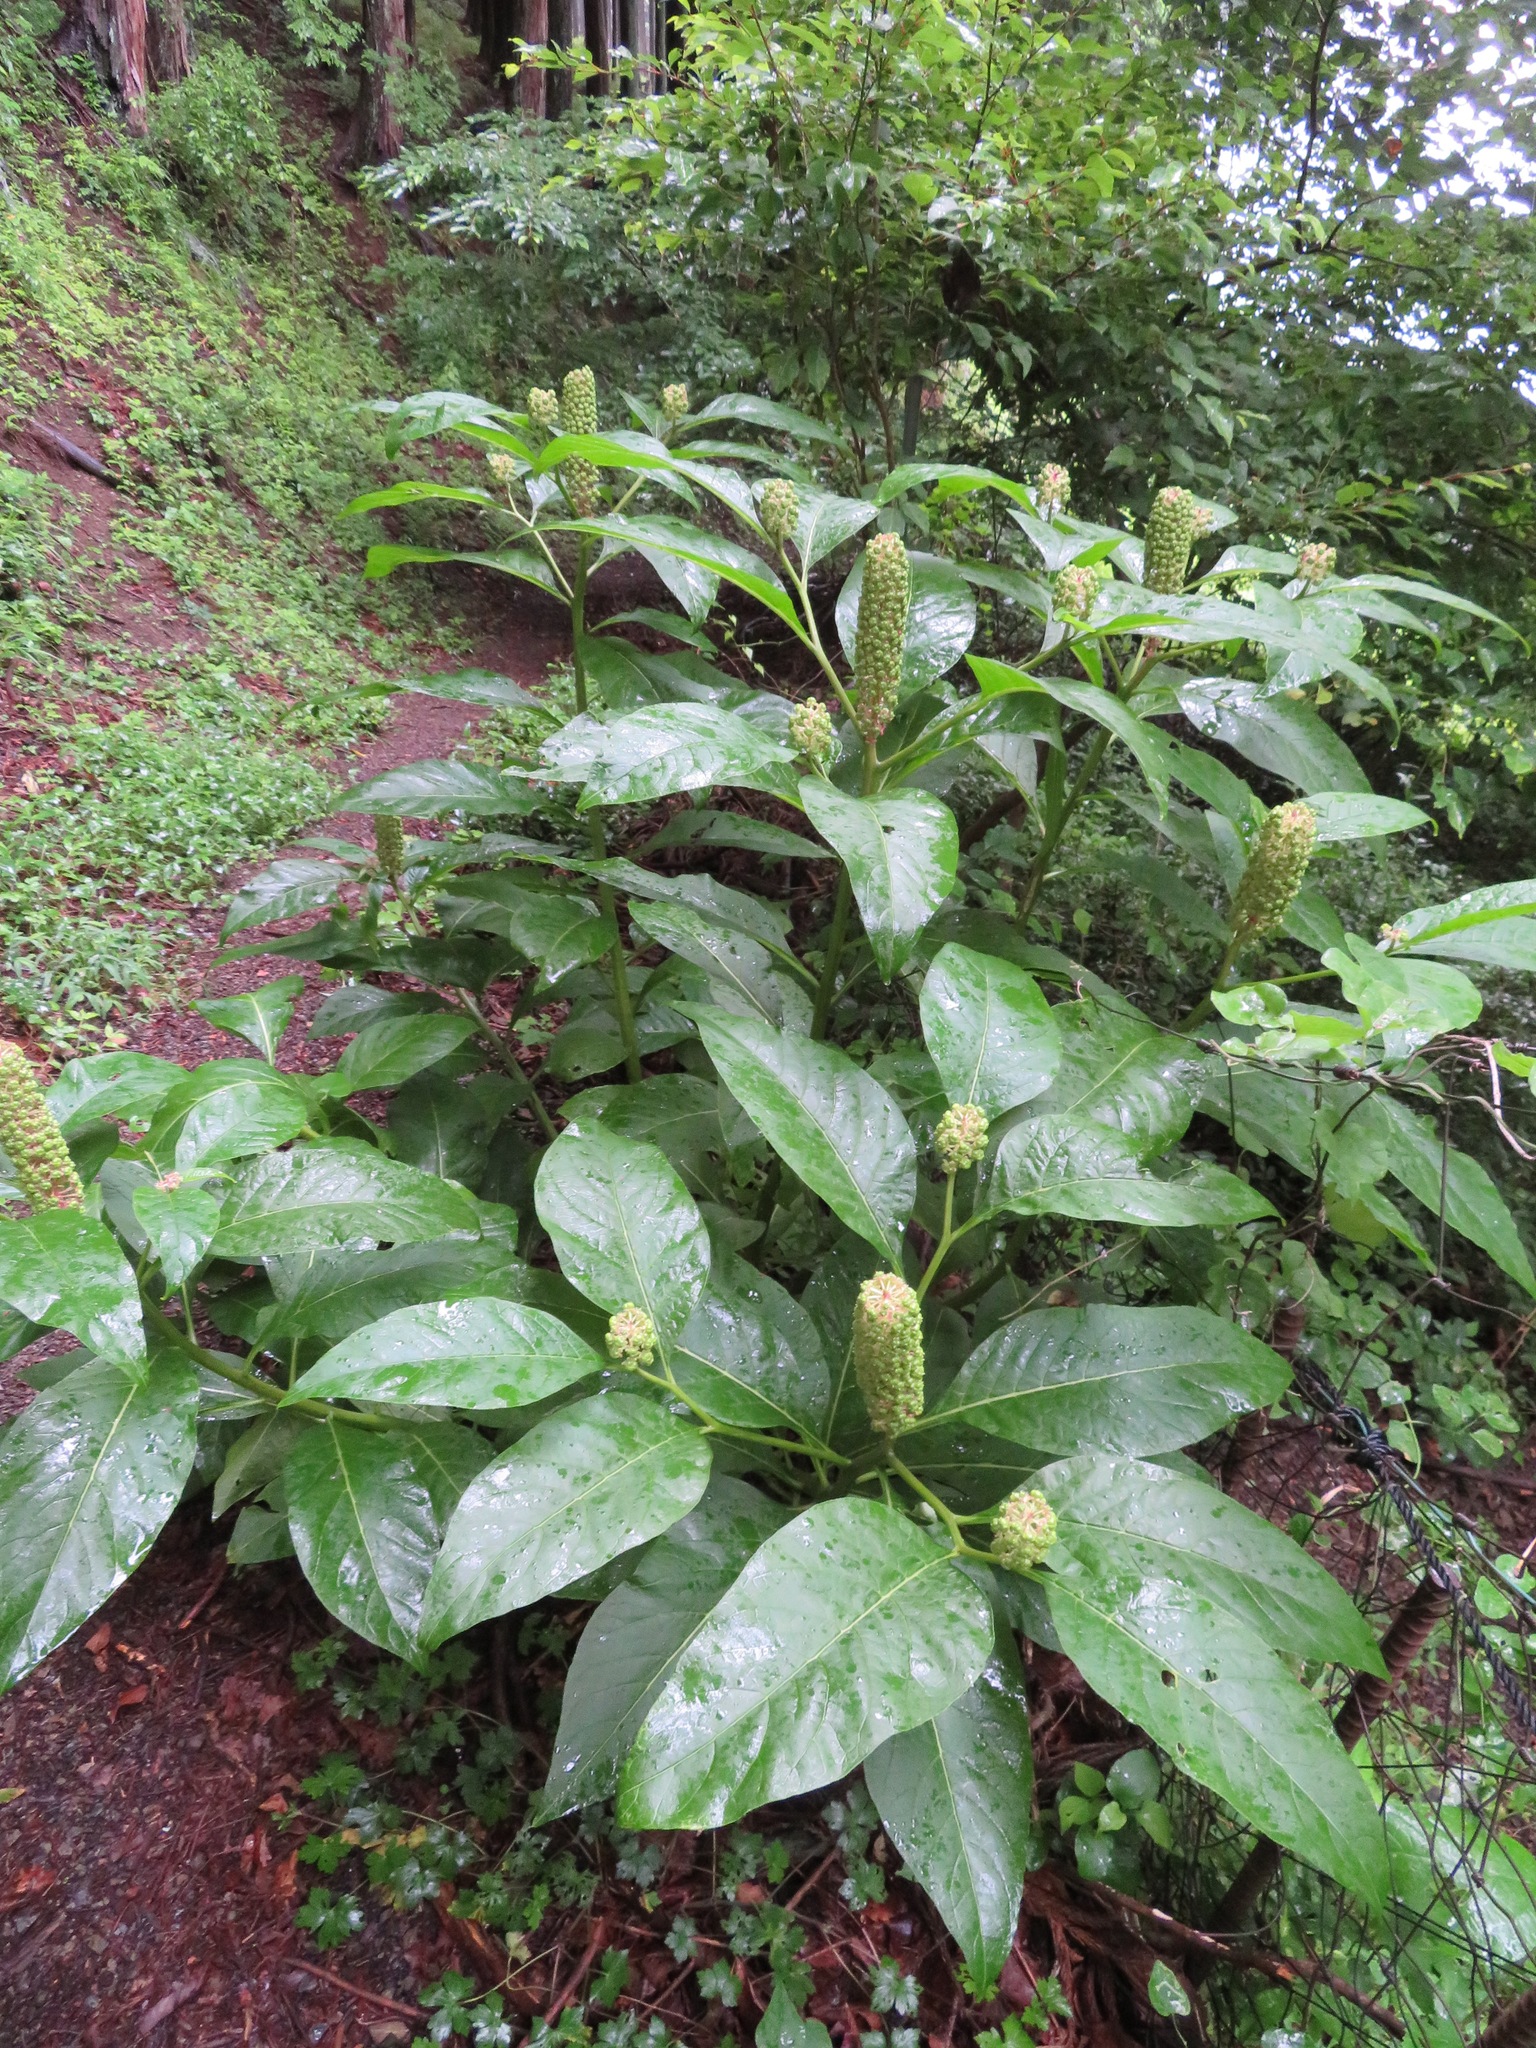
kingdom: Plantae
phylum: Tracheophyta
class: Magnoliopsida
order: Caryophyllales
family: Phytolaccaceae
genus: Phytolacca
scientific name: Phytolacca japonica
